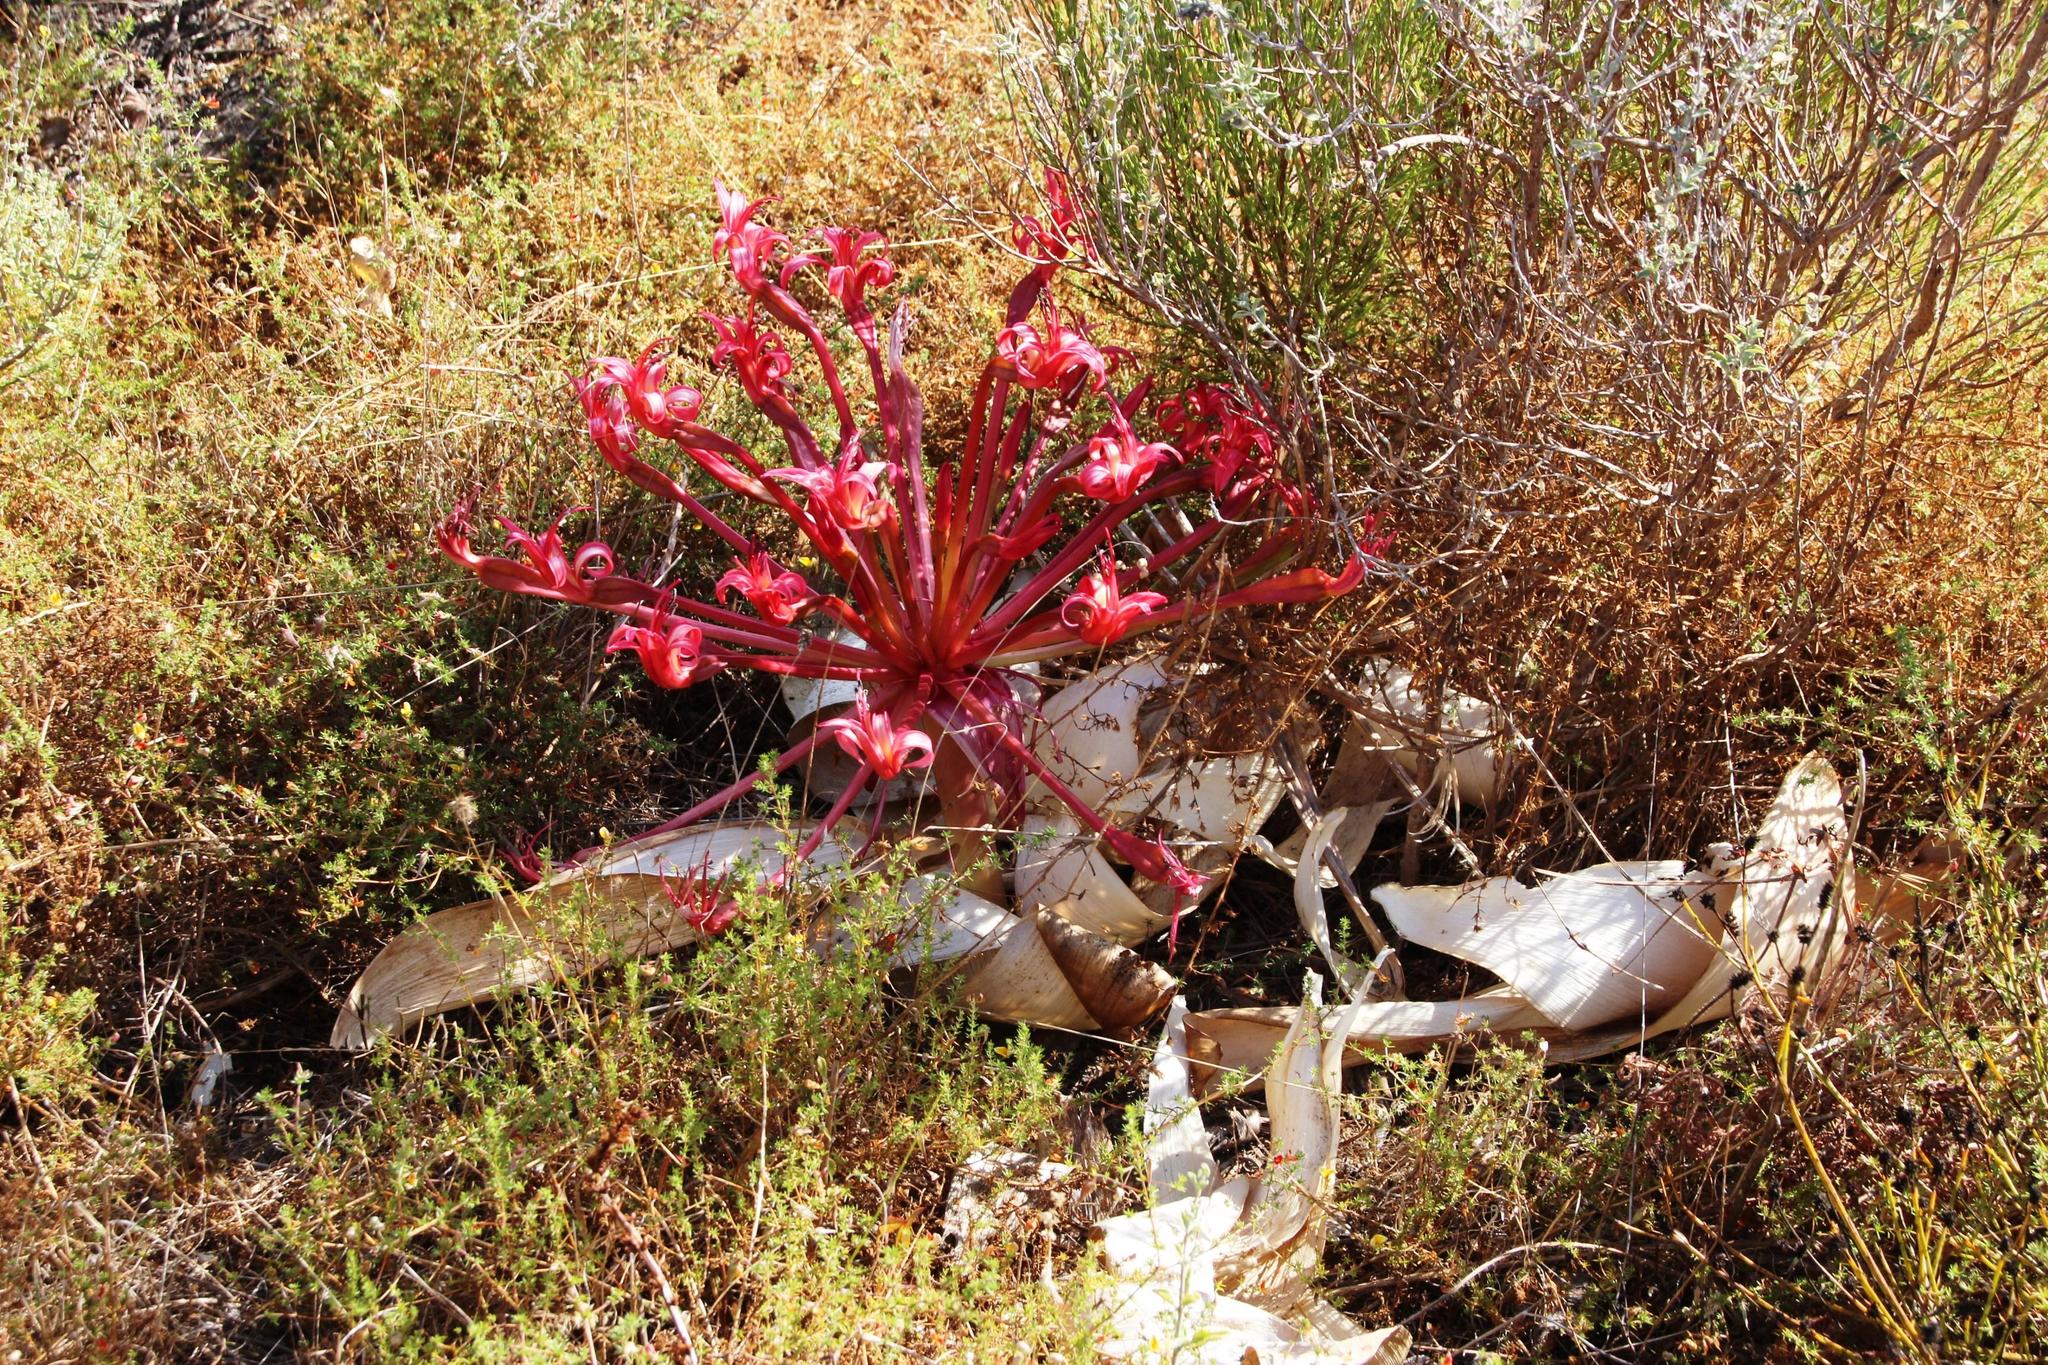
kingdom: Plantae
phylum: Tracheophyta
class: Liliopsida
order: Asparagales
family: Amaryllidaceae
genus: Brunsvigia
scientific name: Brunsvigia orientalis
